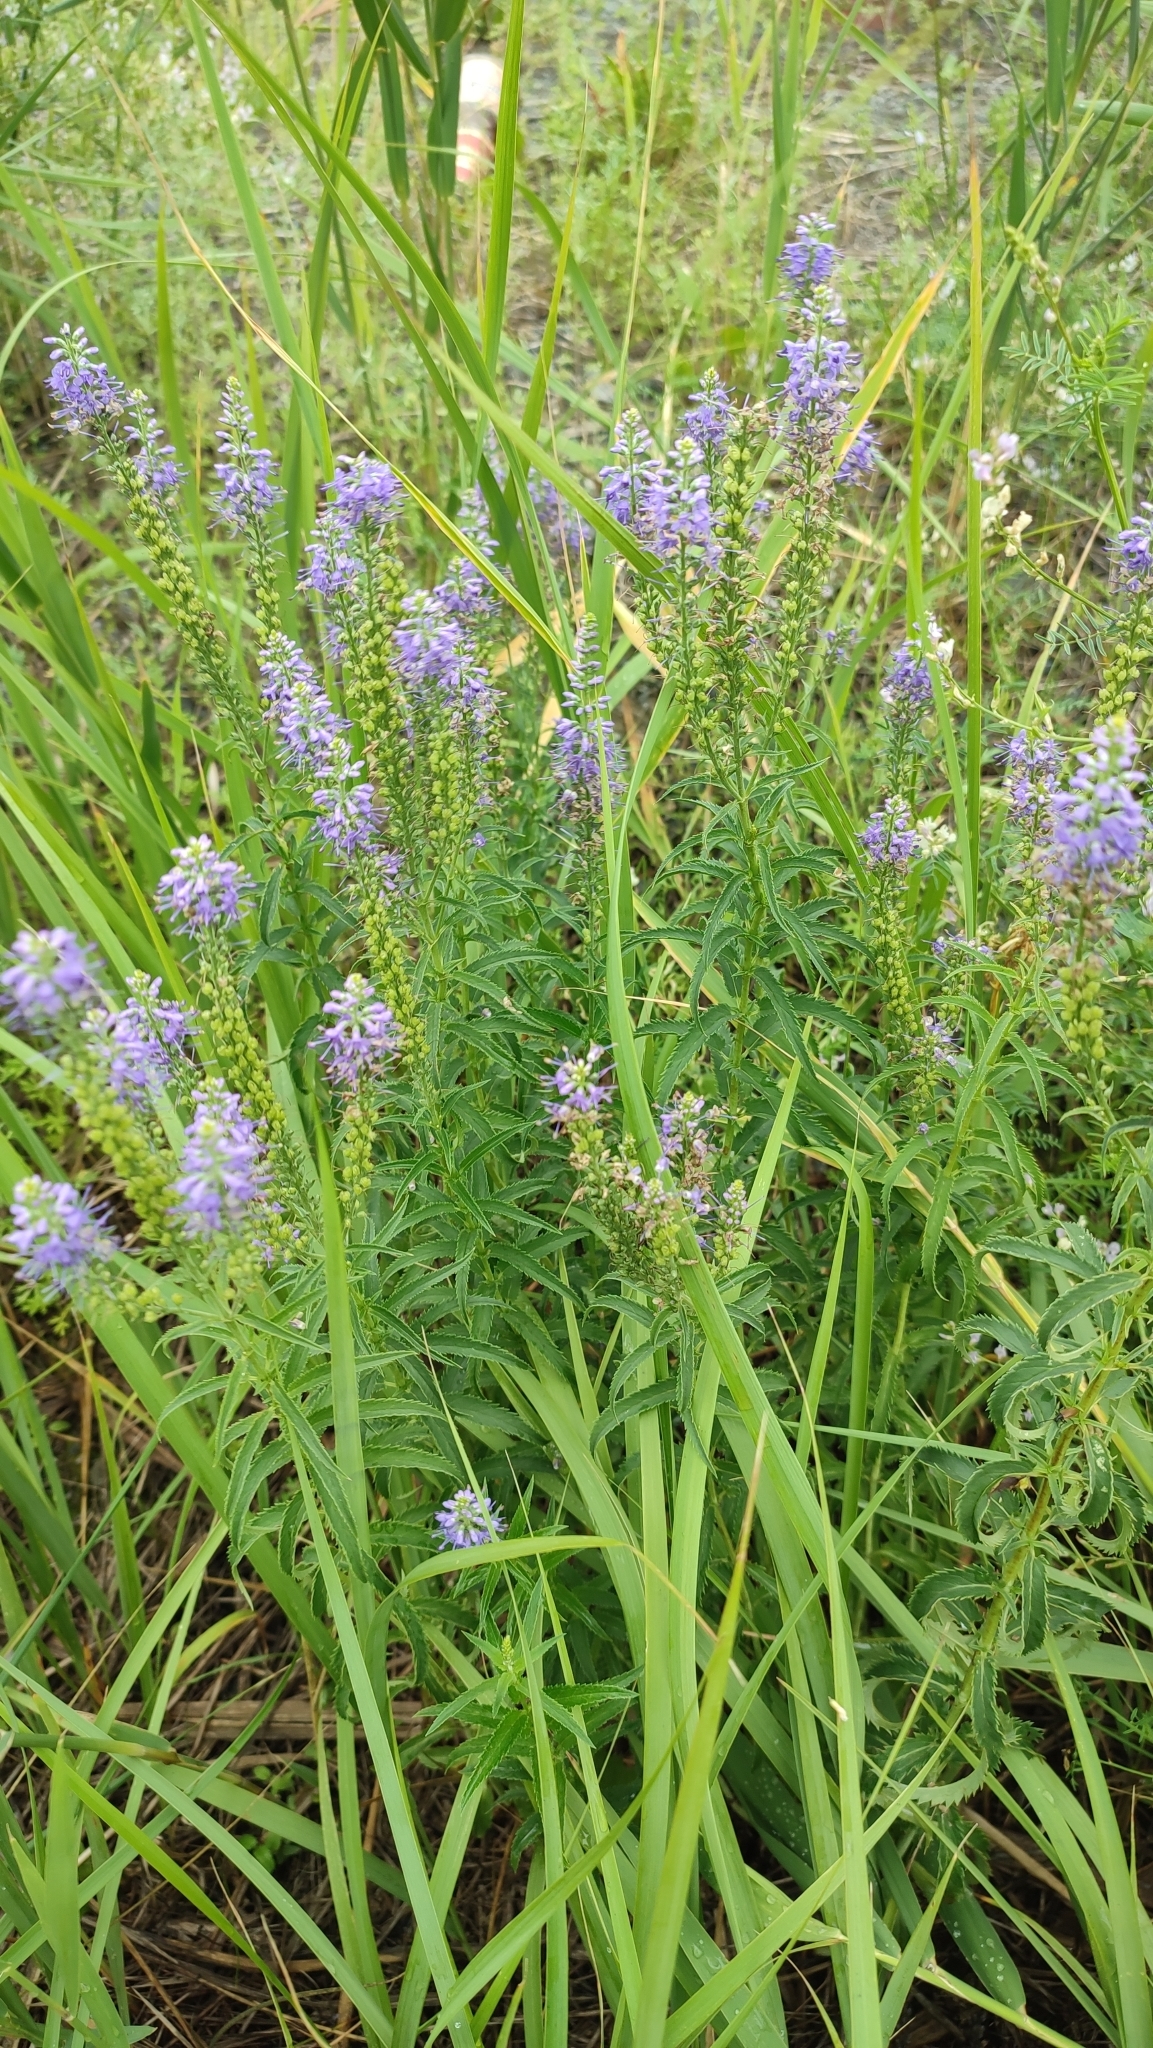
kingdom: Plantae
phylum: Tracheophyta
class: Magnoliopsida
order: Lamiales
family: Plantaginaceae
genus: Veronica
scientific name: Veronica longifolia
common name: Garden speedwell
